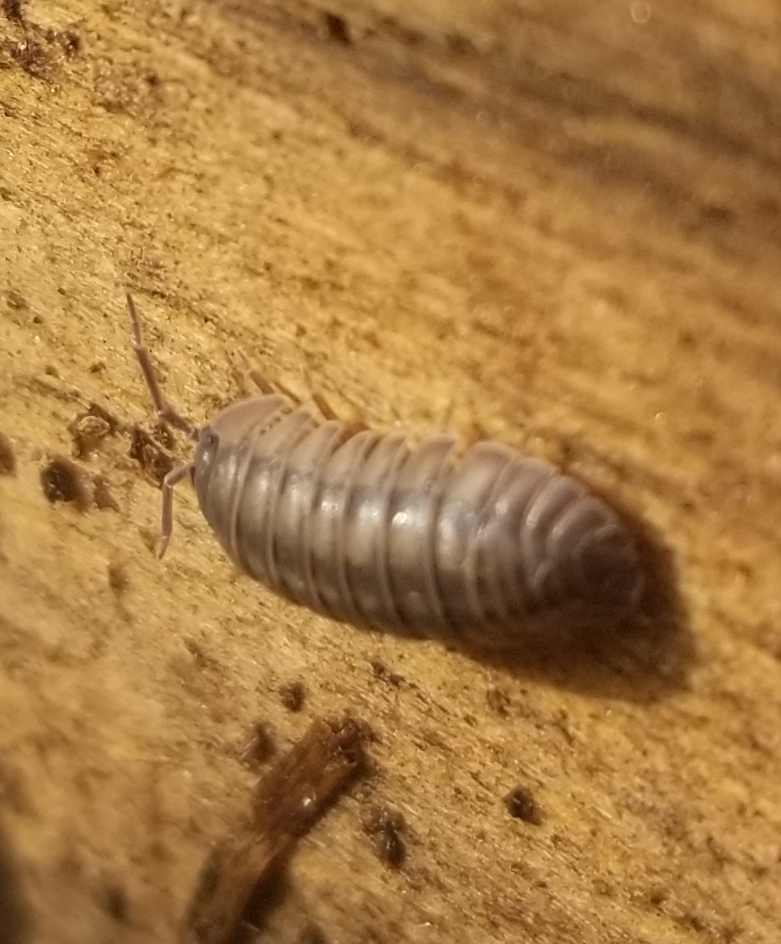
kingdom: Animalia
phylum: Arthropoda
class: Malacostraca
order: Isopoda
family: Armadillidiidae
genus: Armadillidium
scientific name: Armadillidium nasatum
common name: Isopod
